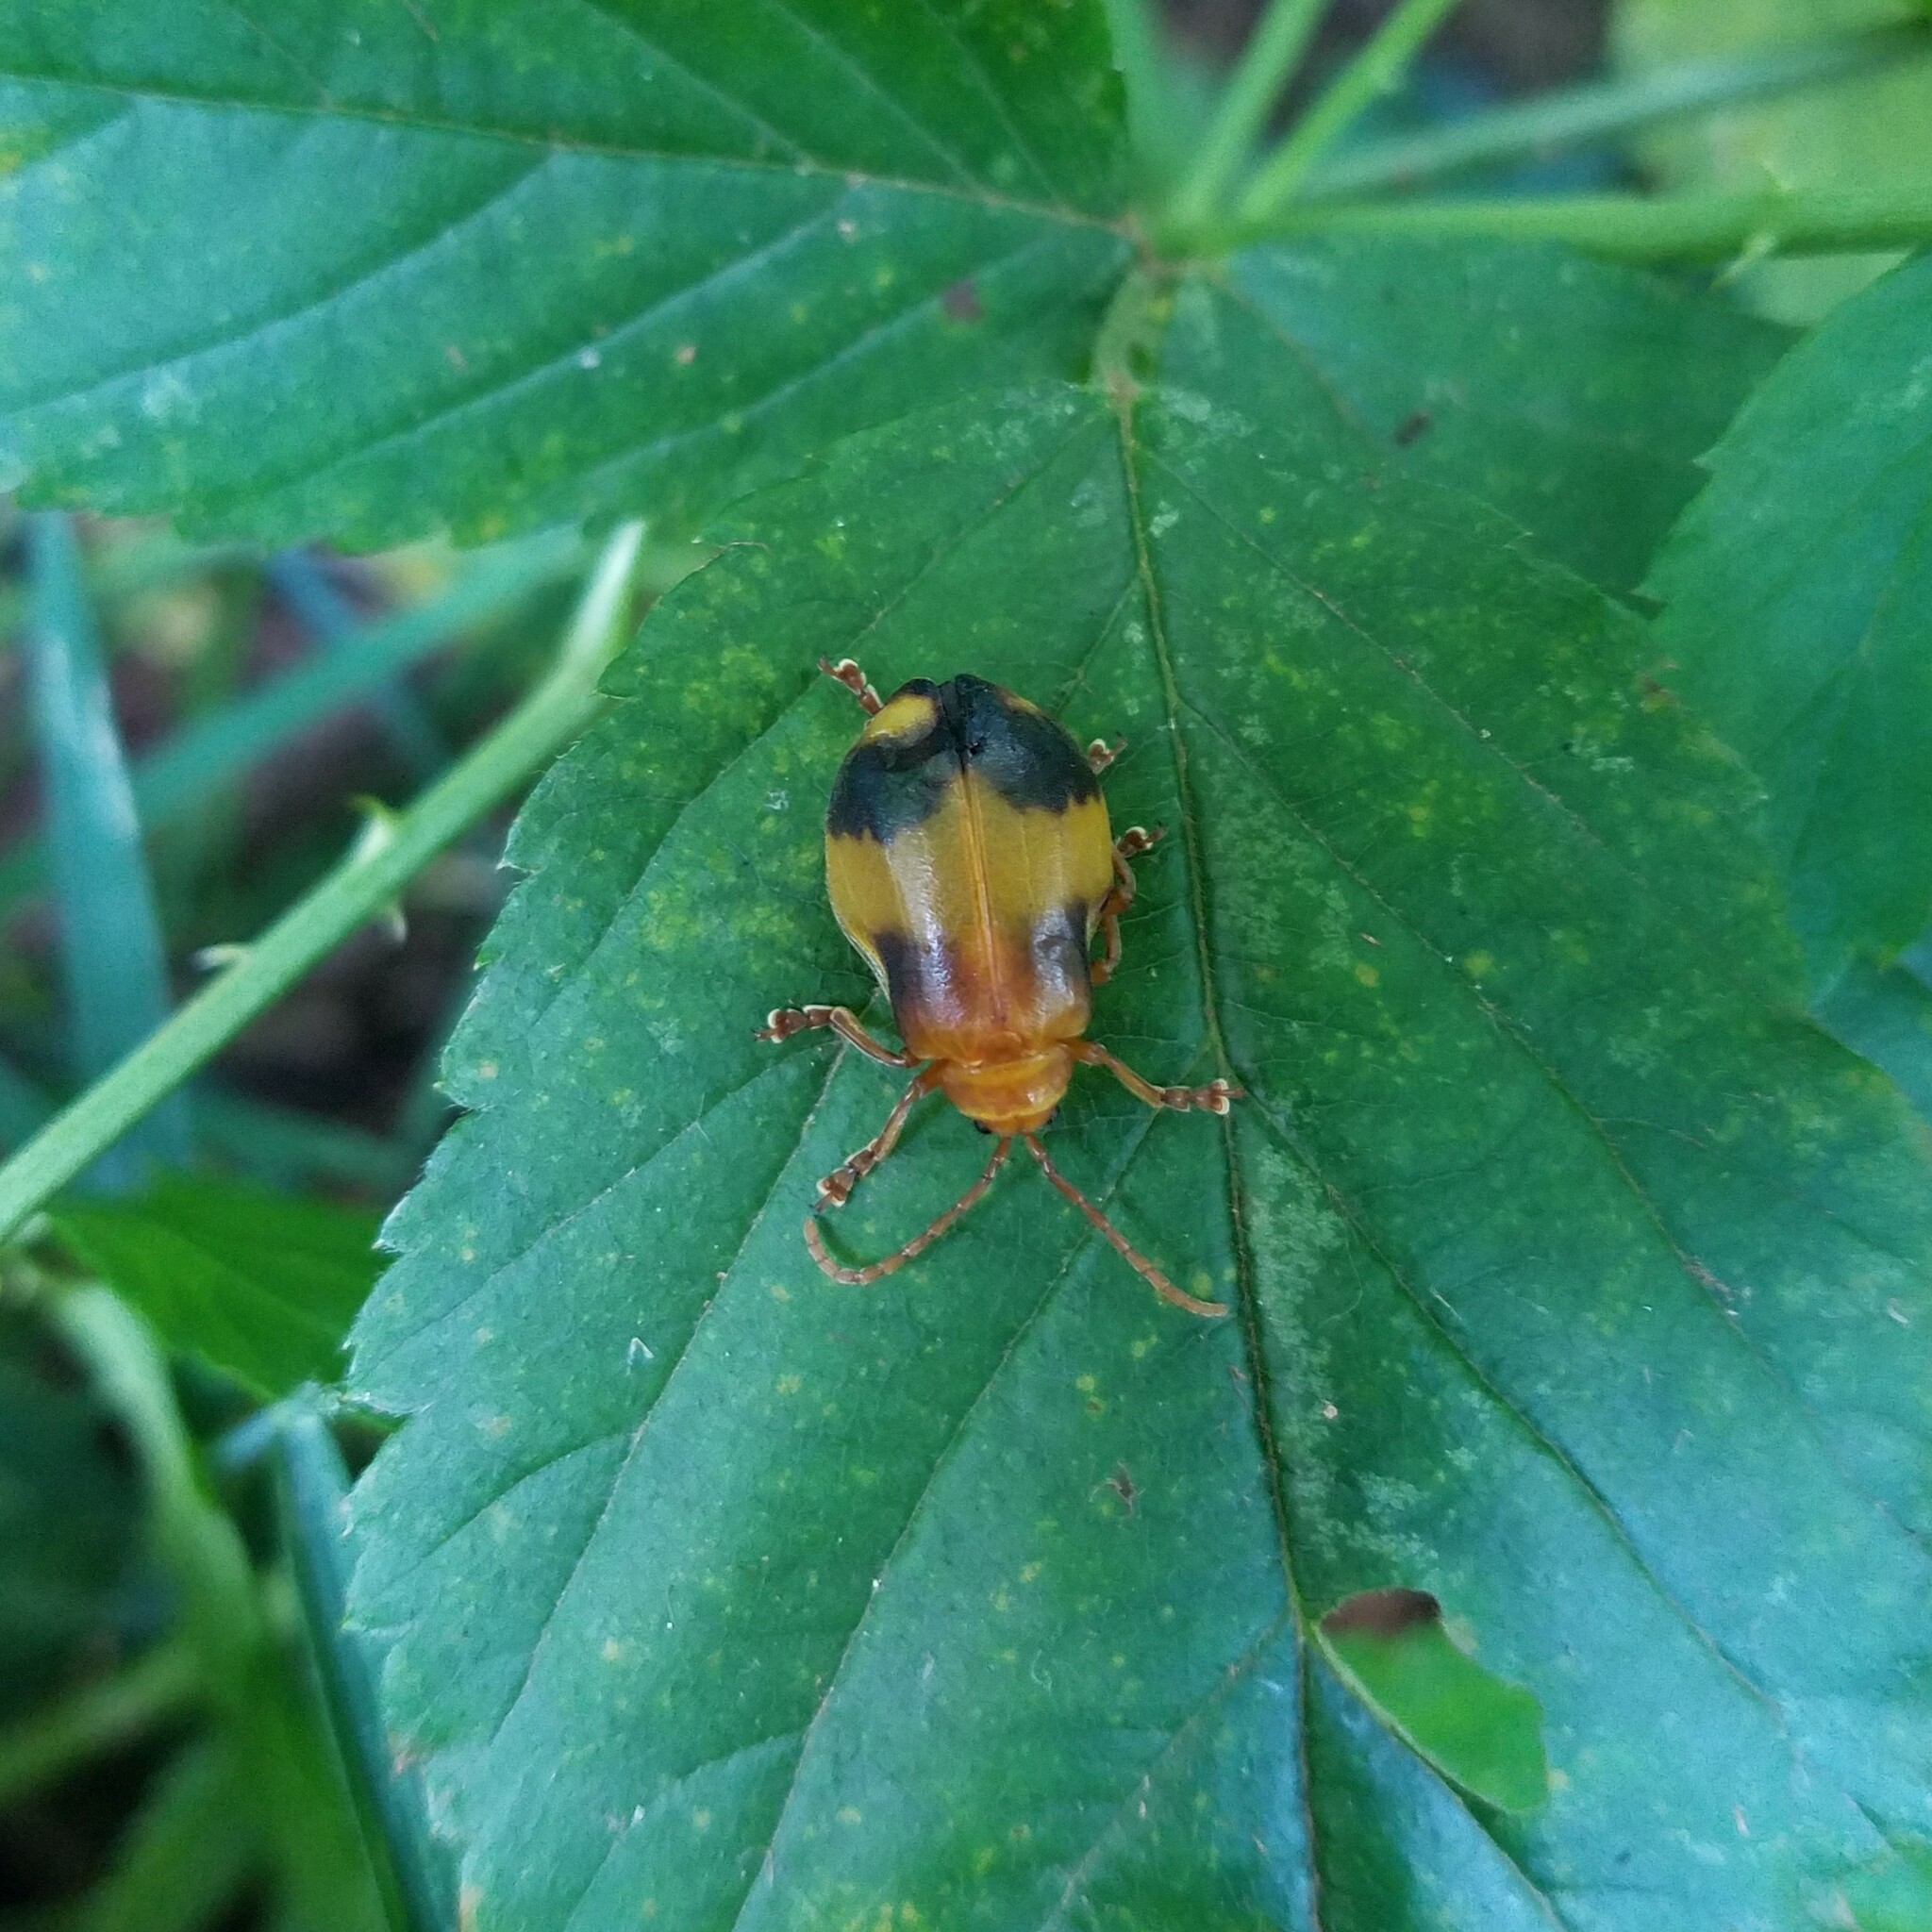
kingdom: Animalia
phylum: Arthropoda
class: Insecta
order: Coleoptera
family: Chrysomelidae
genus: Monocesta
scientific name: Monocesta coryli
